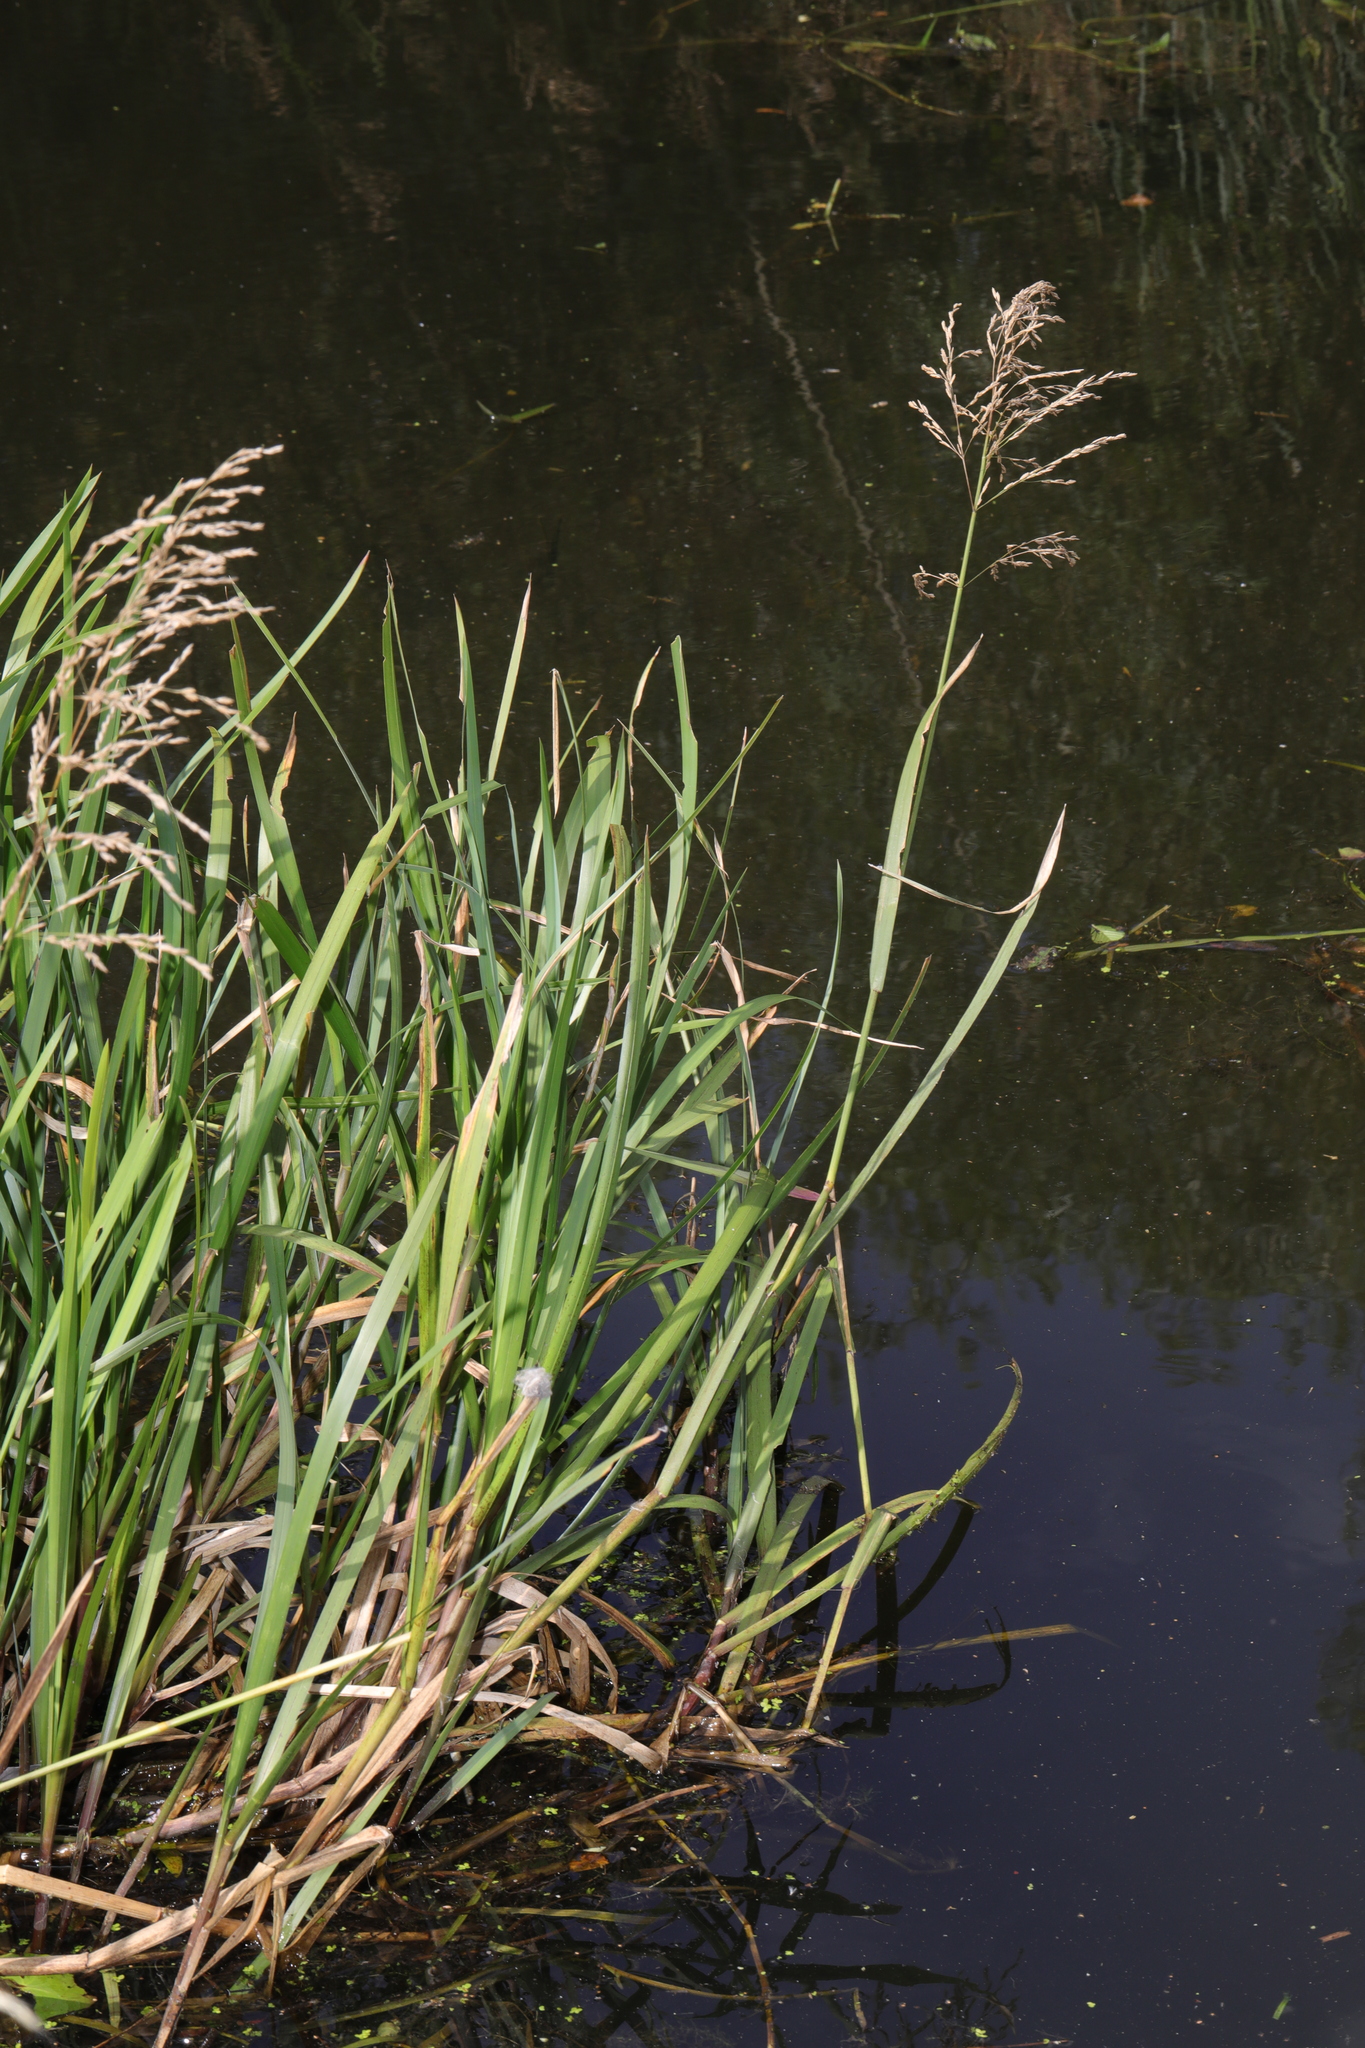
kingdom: Plantae
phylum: Tracheophyta
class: Liliopsida
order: Poales
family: Poaceae
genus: Glyceria
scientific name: Glyceria maxima
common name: Reed mannagrass
